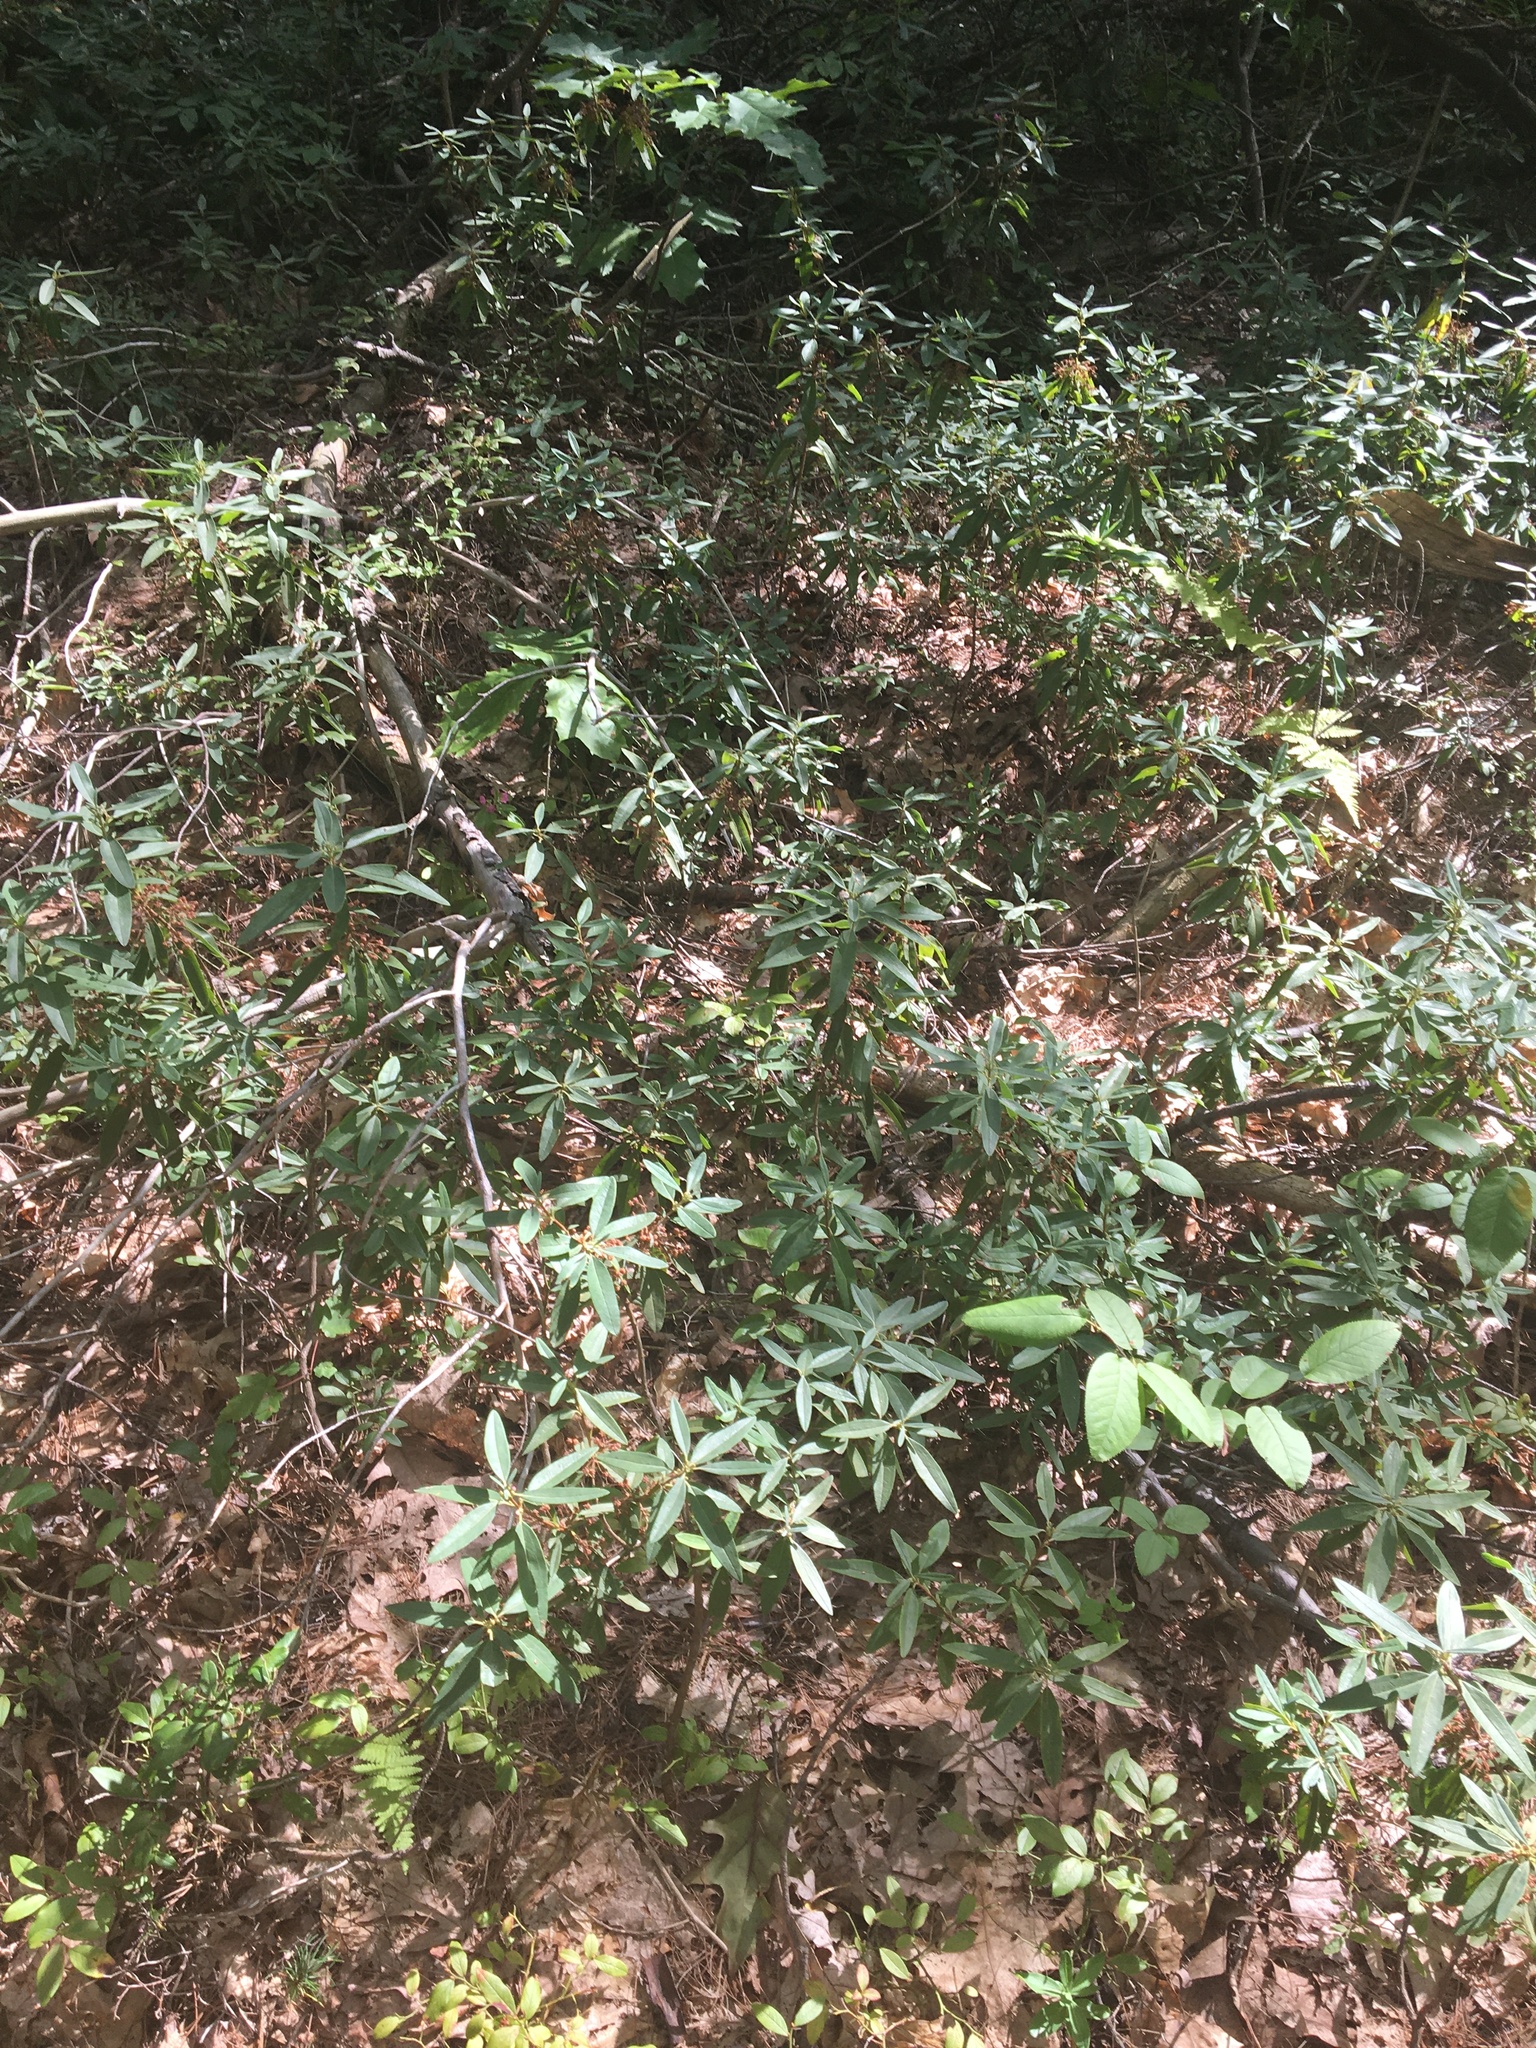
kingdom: Plantae
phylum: Tracheophyta
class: Magnoliopsida
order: Ericales
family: Ericaceae
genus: Kalmia
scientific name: Kalmia angustifolia
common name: Sheep-laurel
